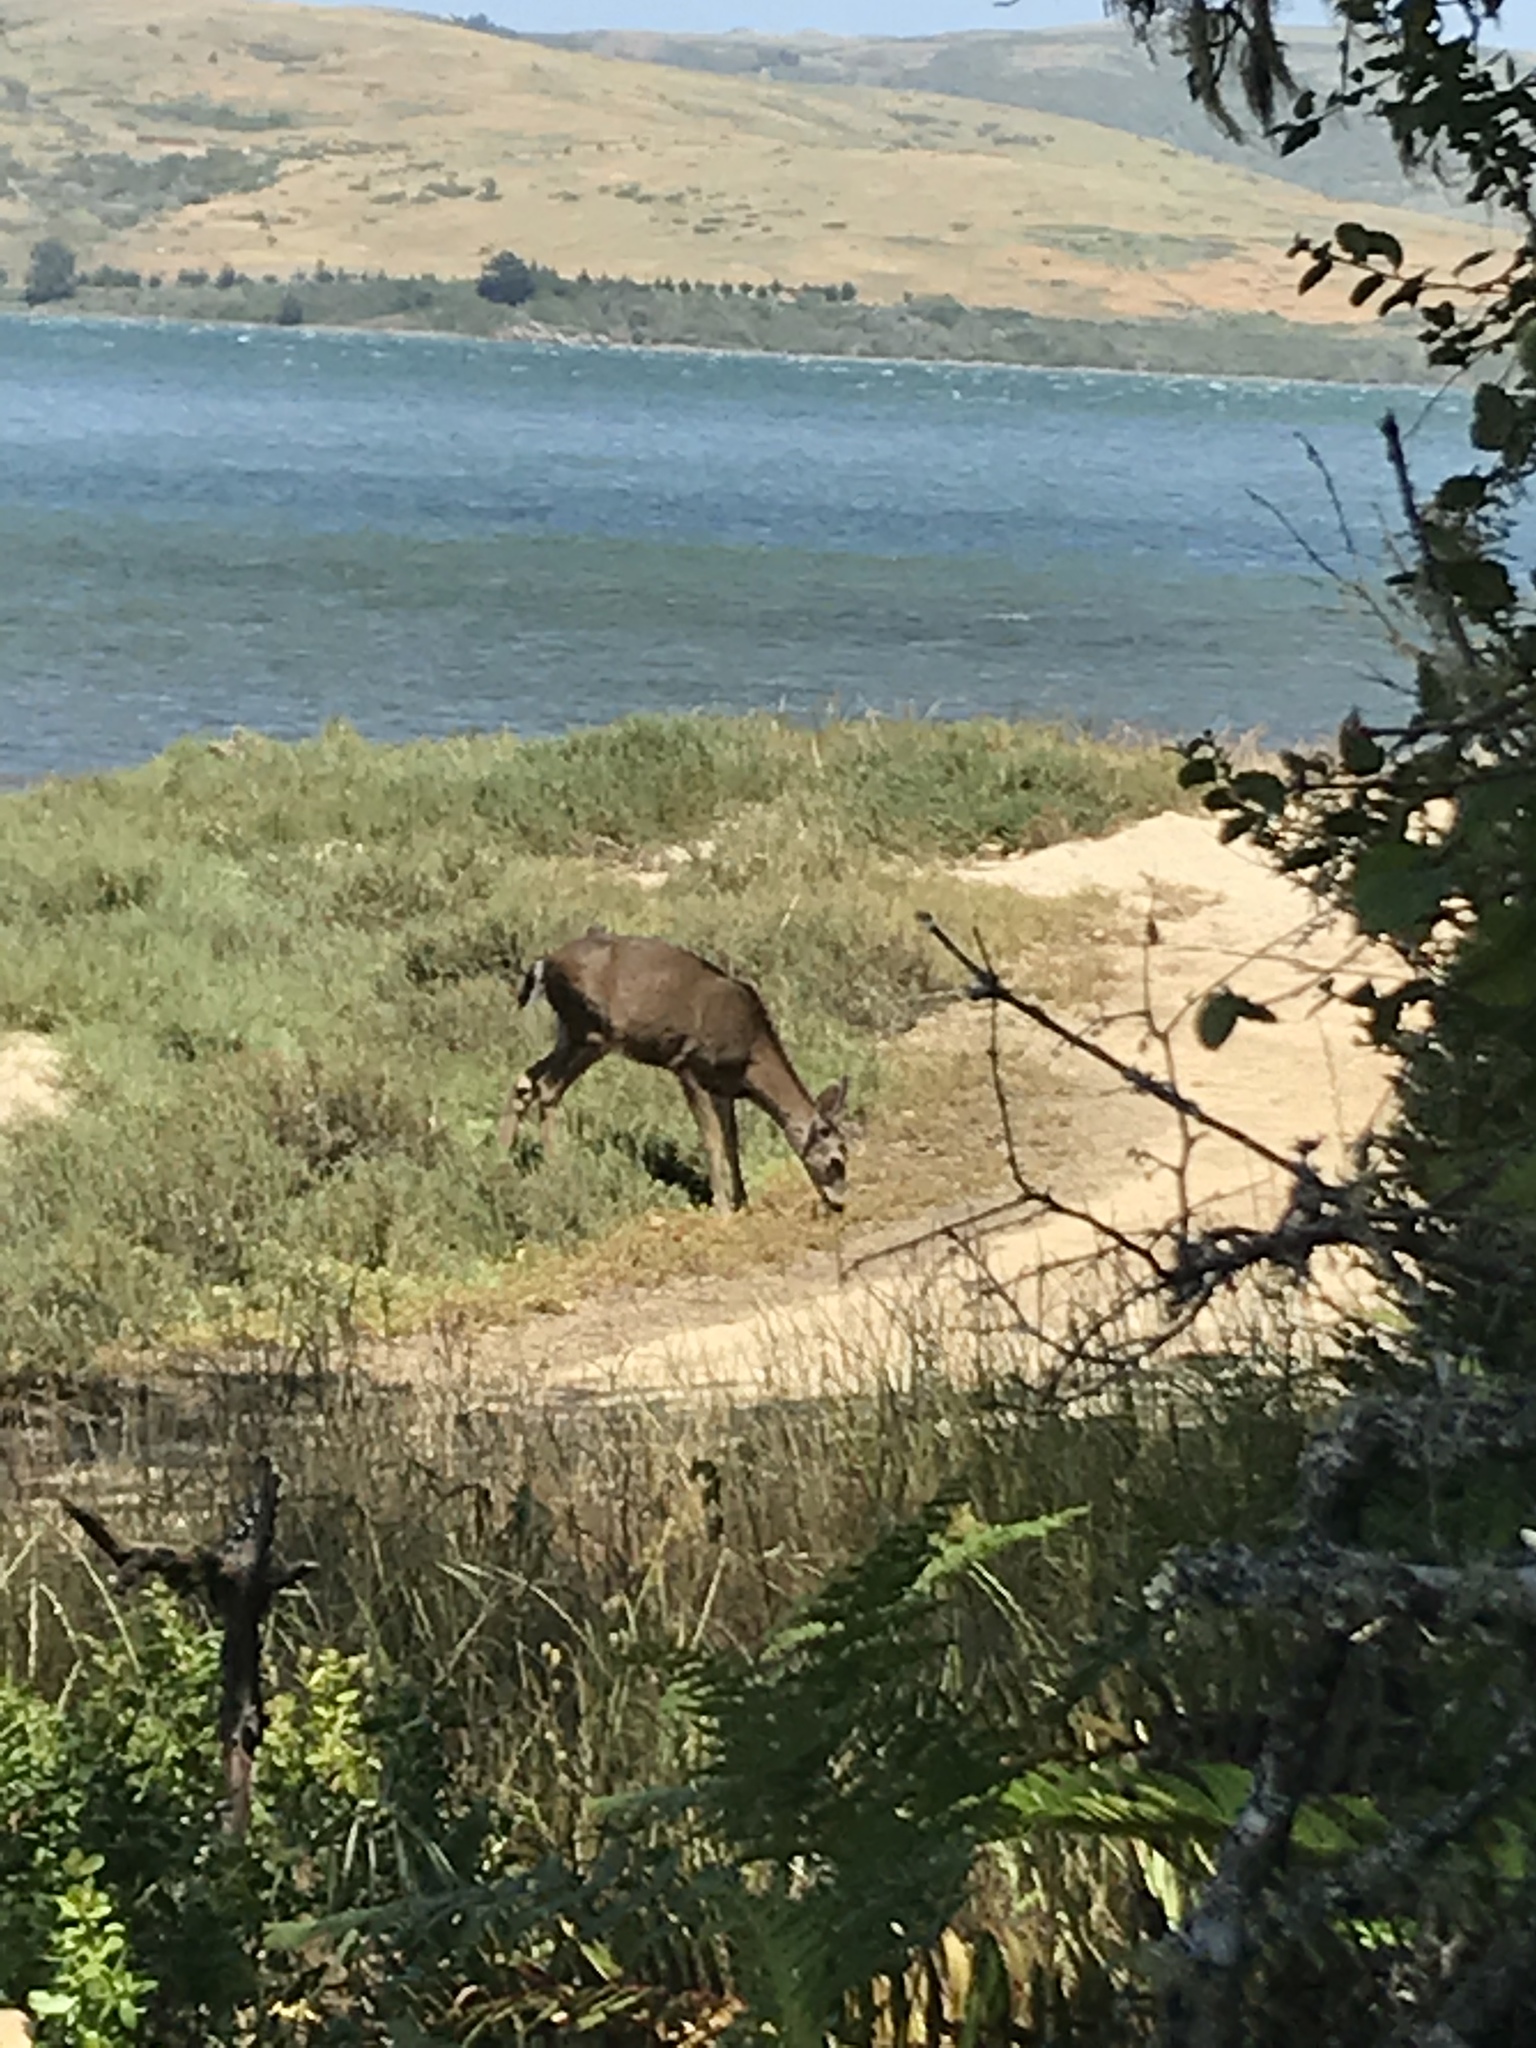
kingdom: Animalia
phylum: Chordata
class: Mammalia
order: Artiodactyla
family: Cervidae
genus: Odocoileus
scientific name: Odocoileus hemionus
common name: Mule deer
